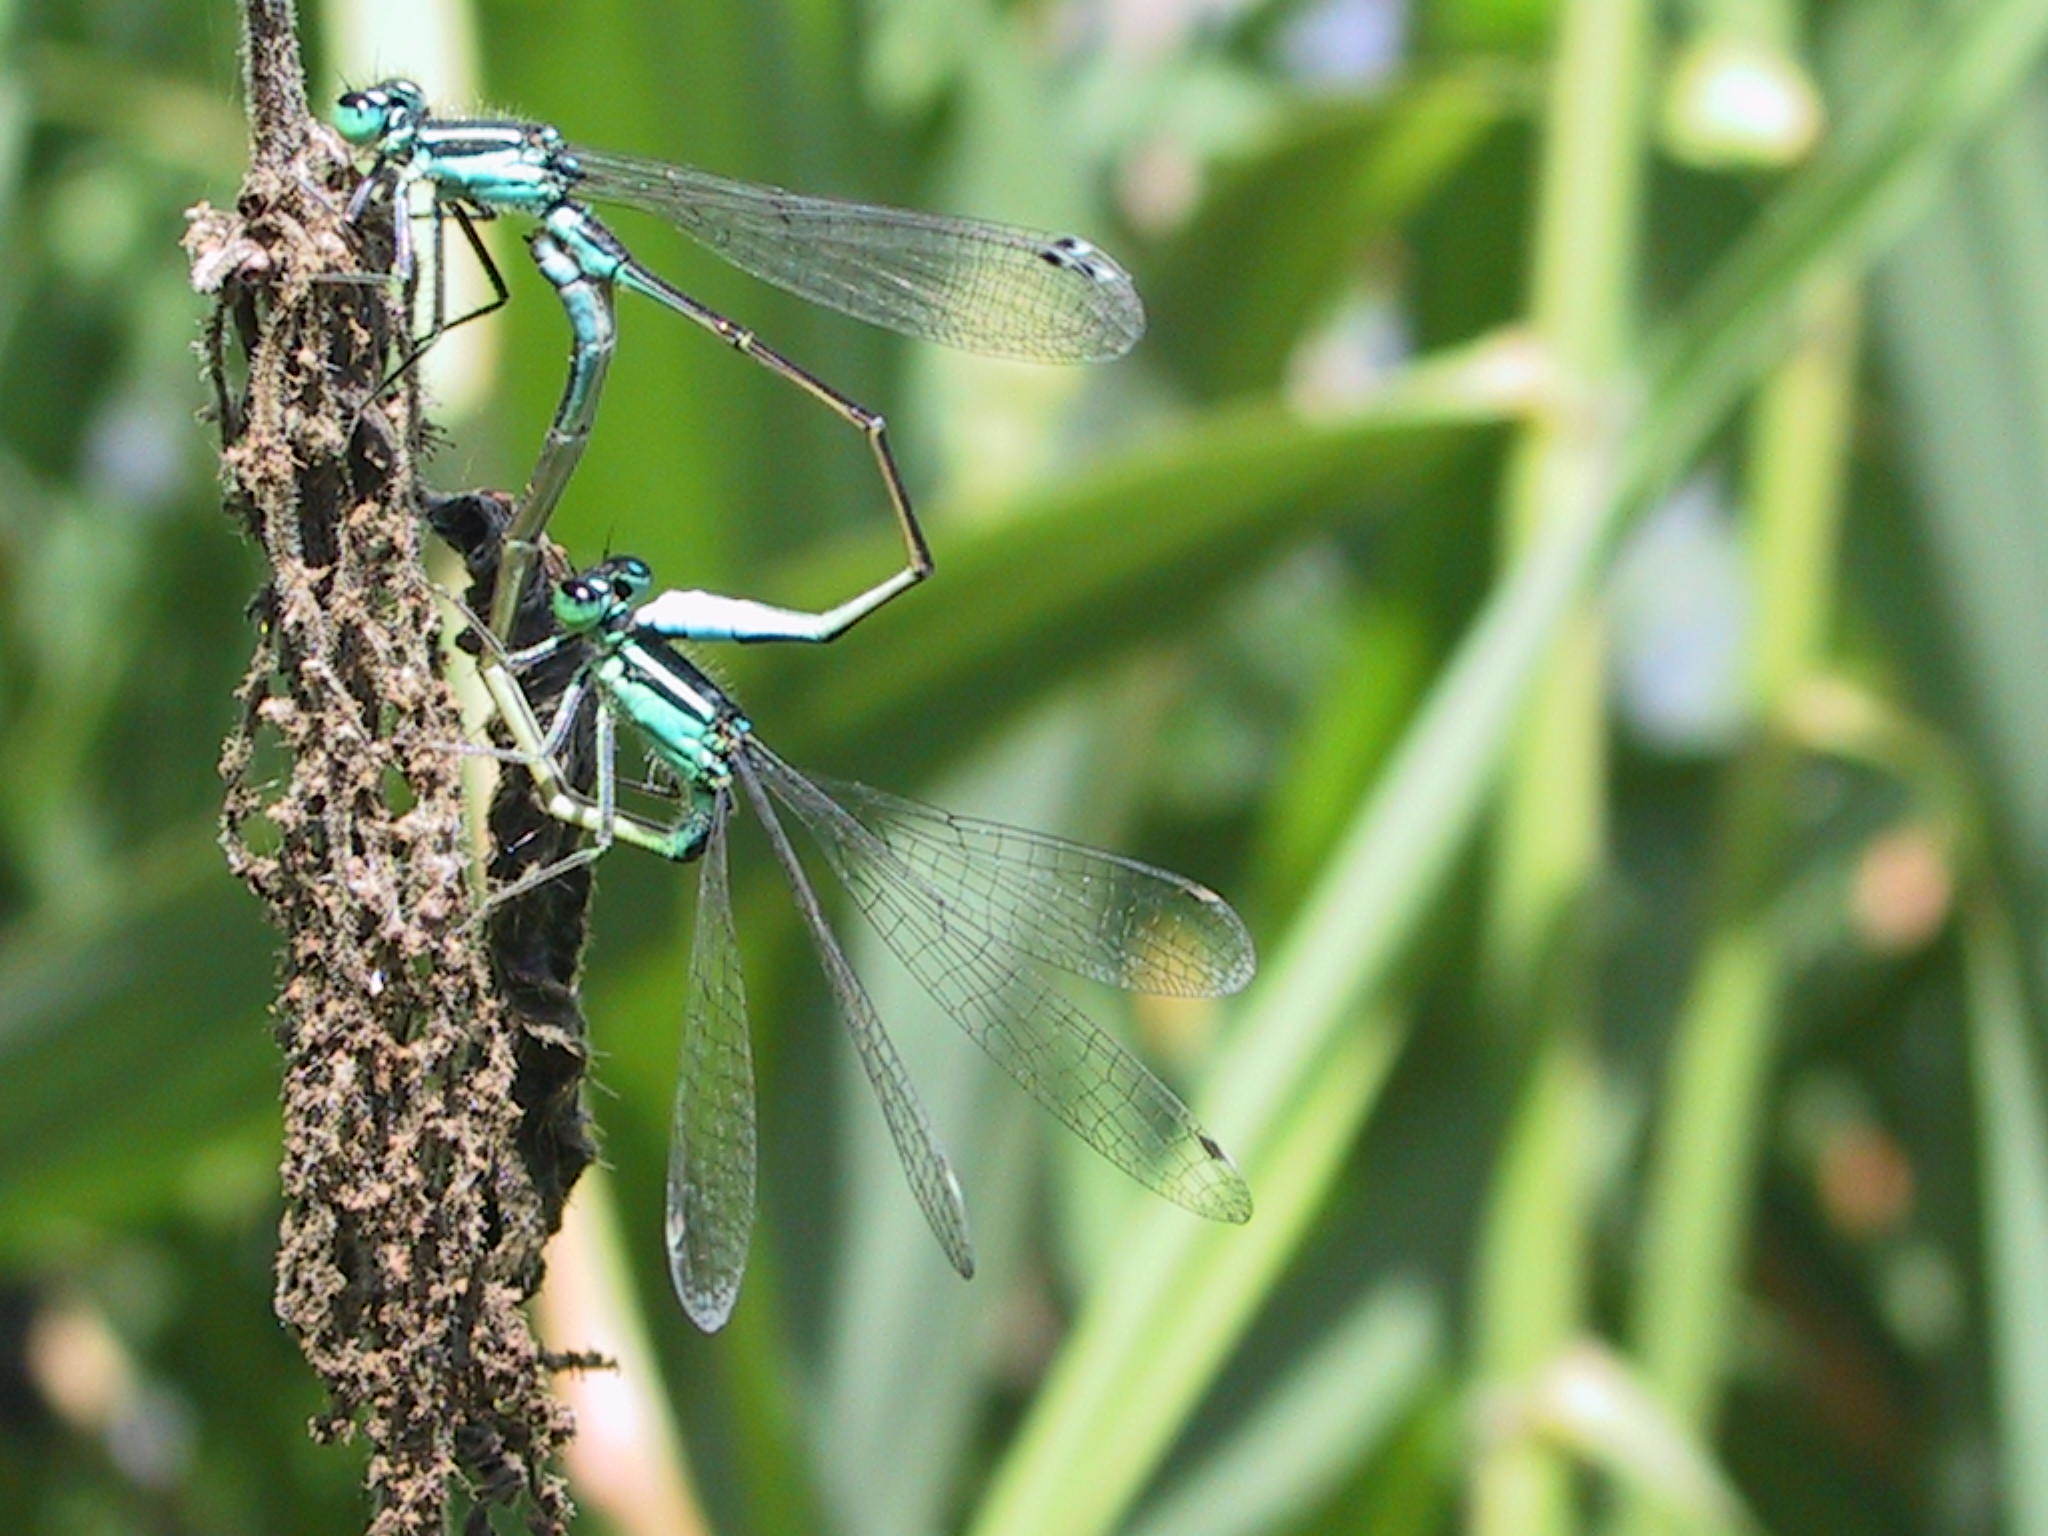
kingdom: Animalia
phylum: Arthropoda
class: Insecta
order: Odonata
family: Coenagrionidae
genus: Ischnura
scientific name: Ischnura elegans
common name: Blue-tailed damselfly
